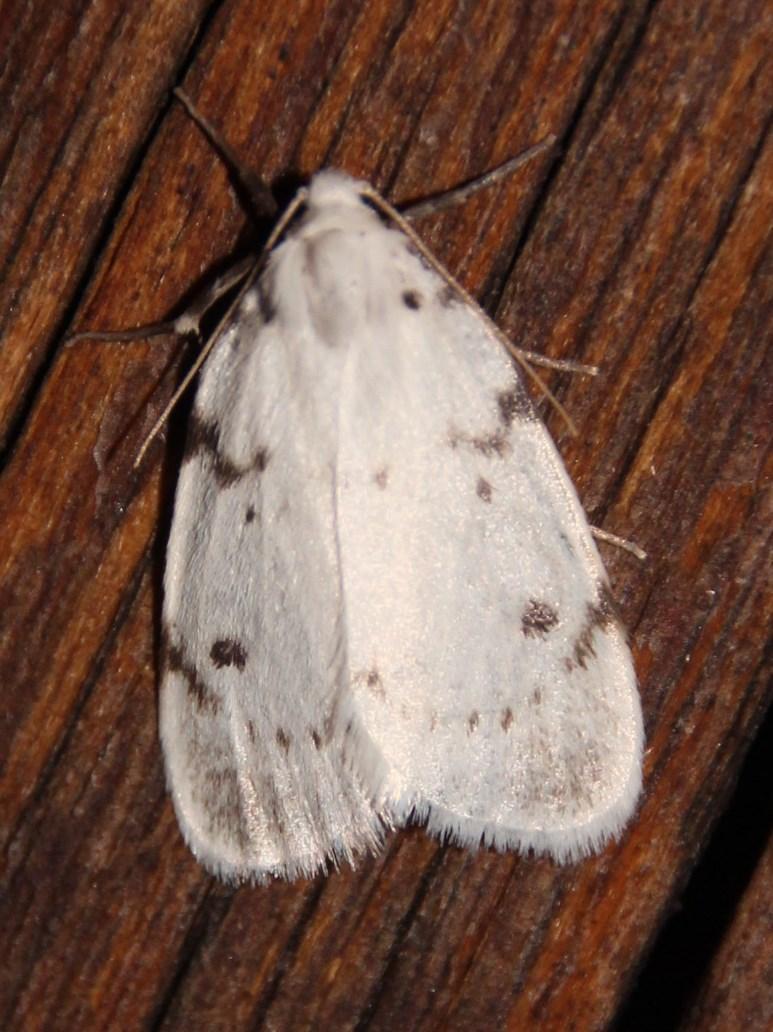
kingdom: Animalia
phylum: Arthropoda
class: Insecta
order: Lepidoptera
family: Erebidae
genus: Cyana
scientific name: Cyana marshalli
